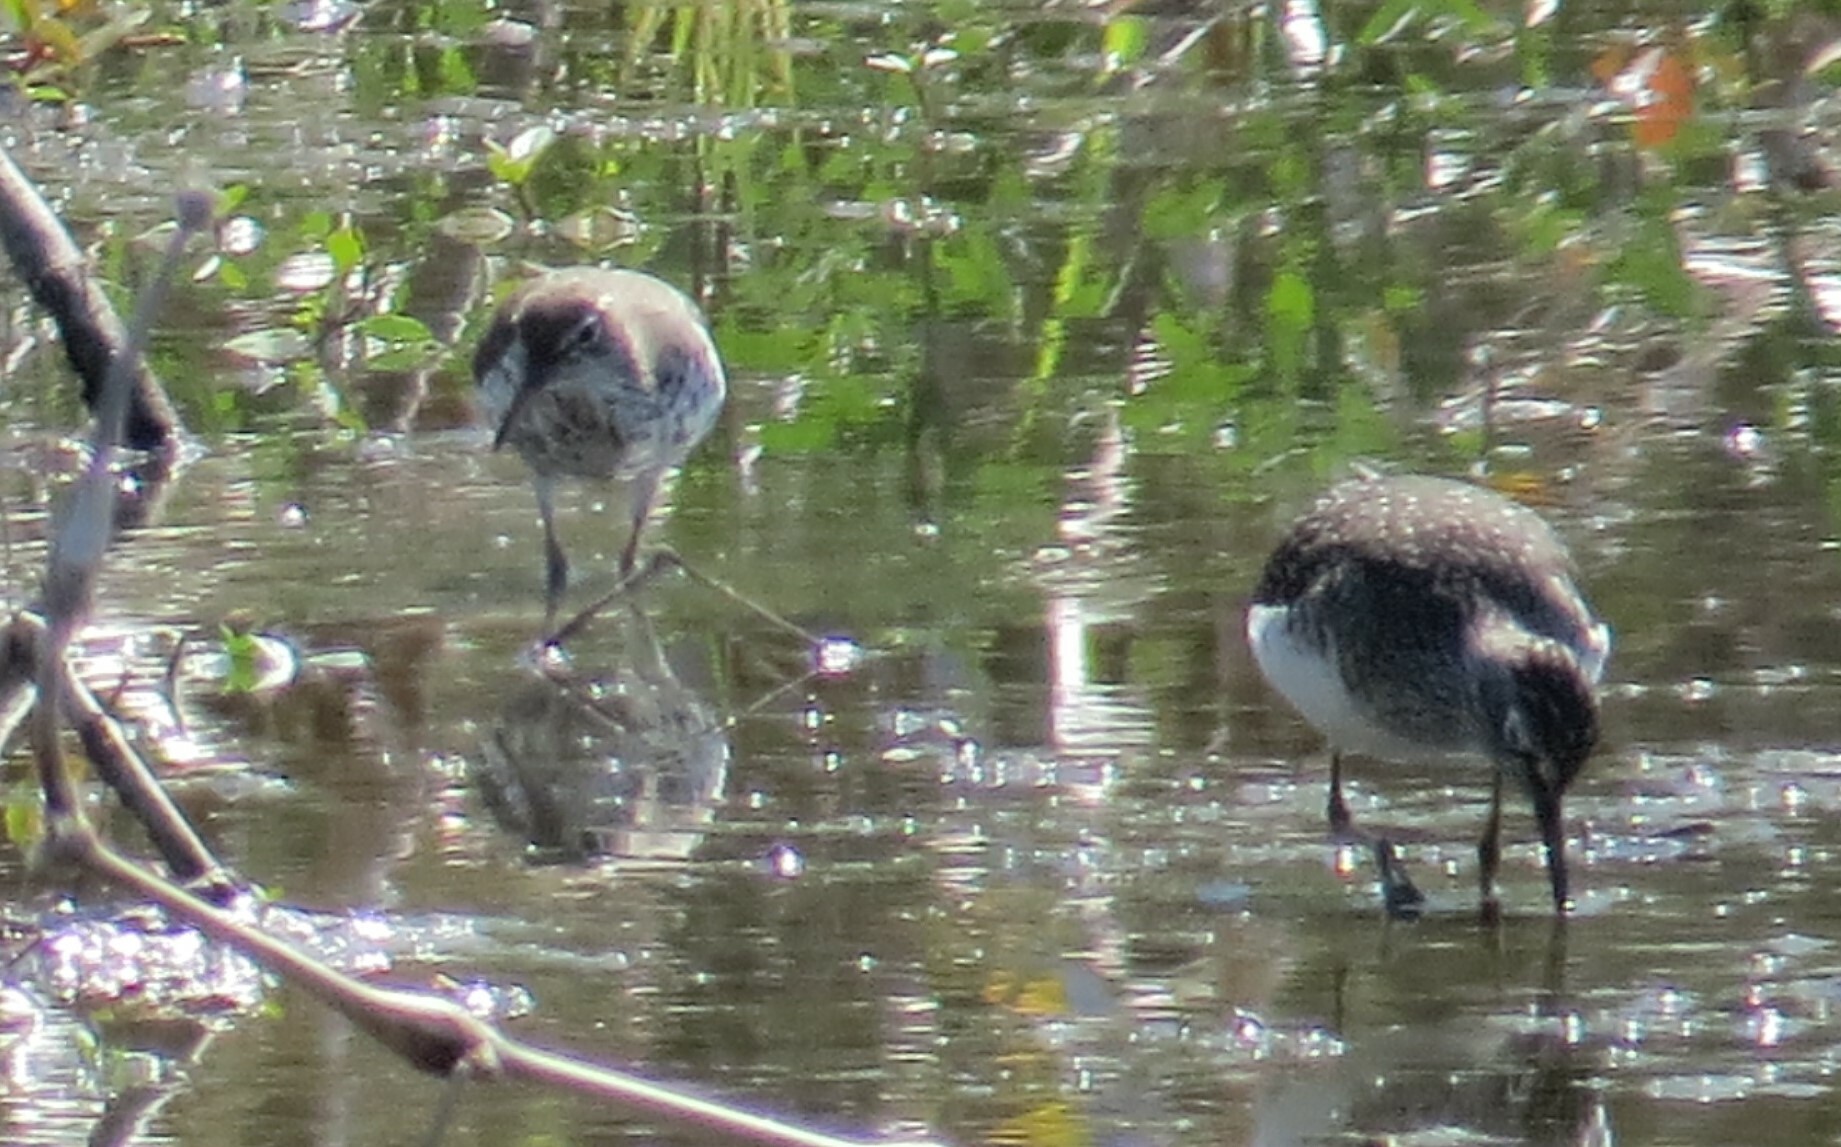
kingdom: Animalia
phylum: Chordata
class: Aves
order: Charadriiformes
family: Scolopacidae
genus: Tringa
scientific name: Tringa solitaria
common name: Solitary sandpiper
